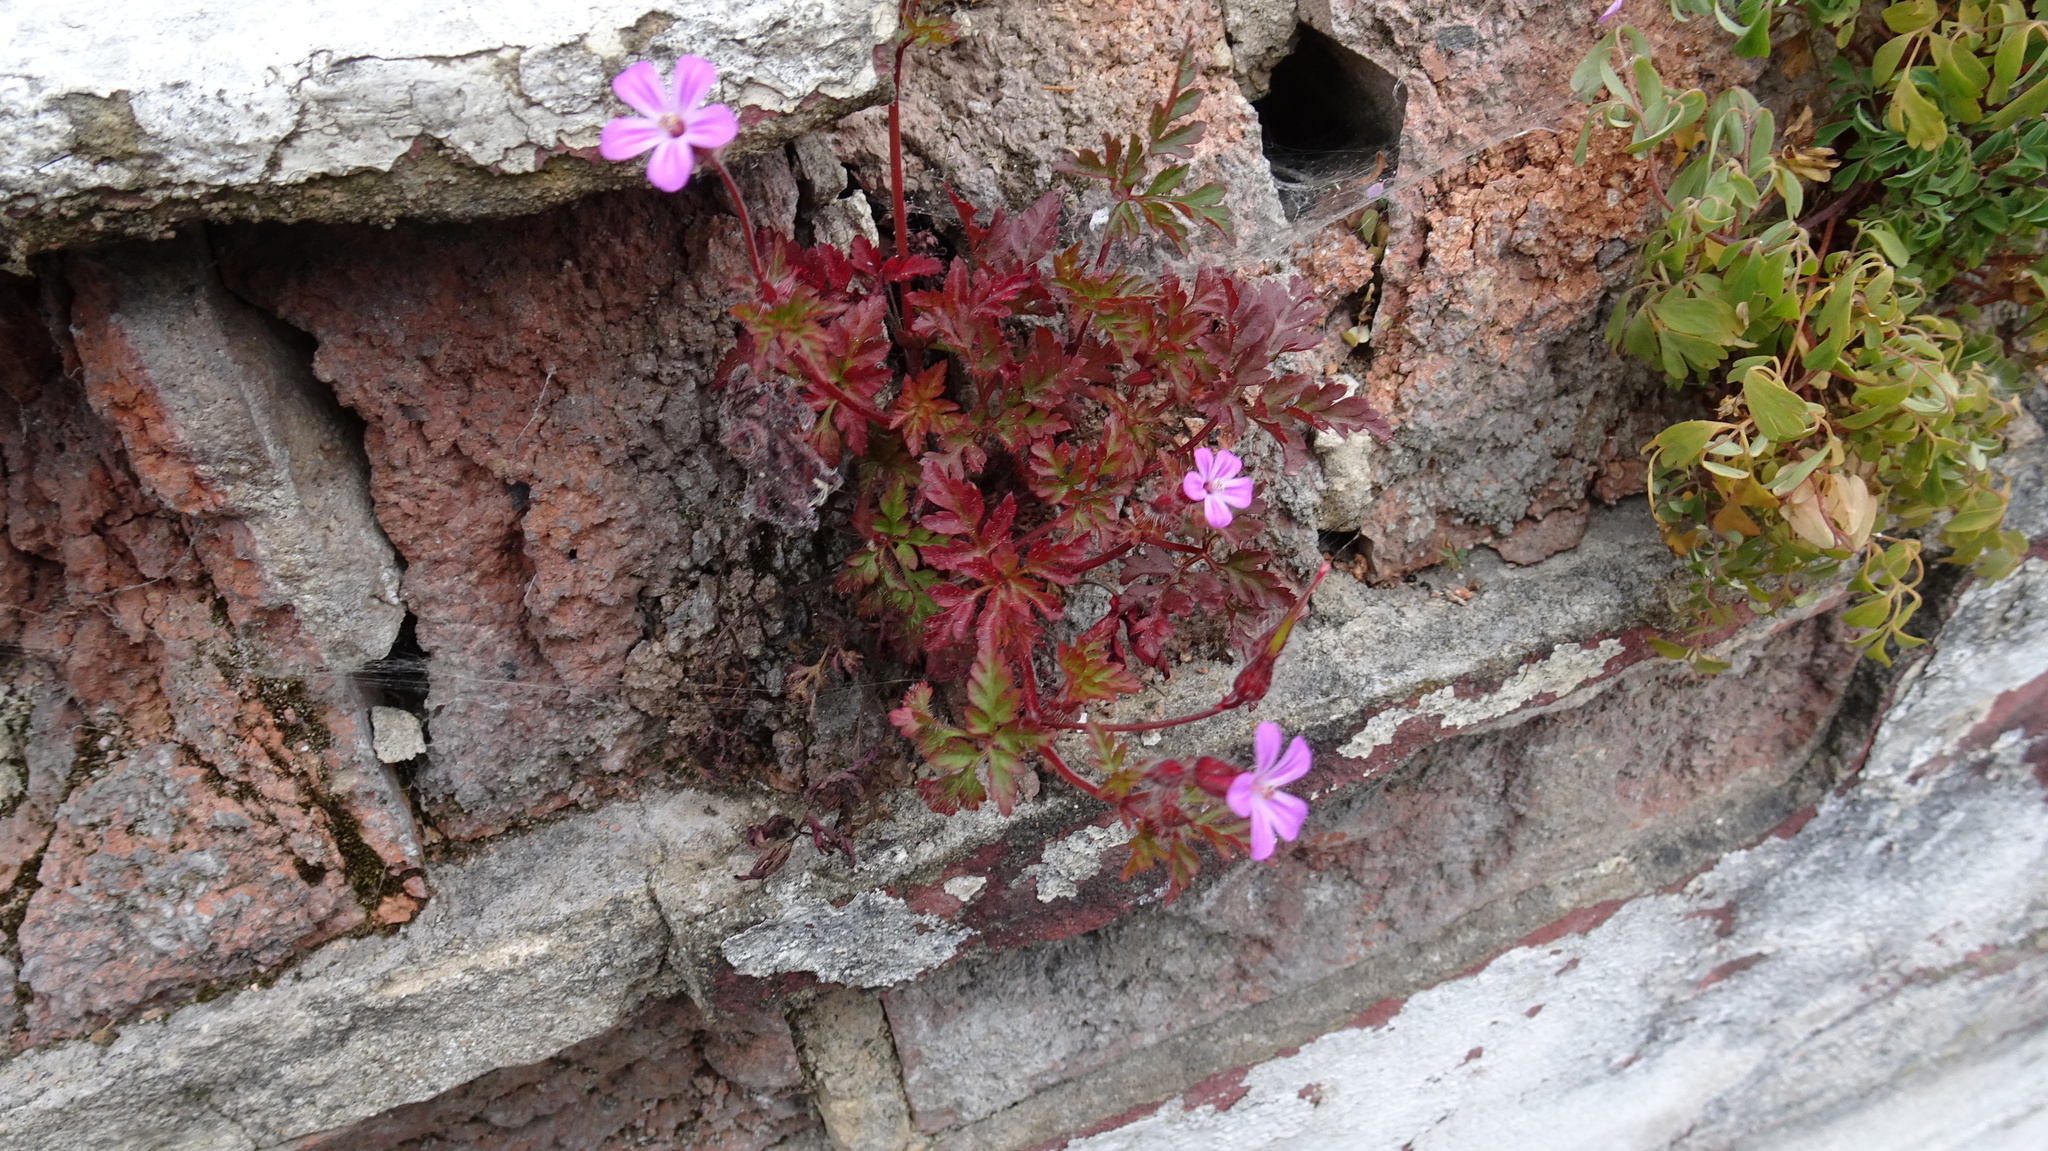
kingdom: Plantae
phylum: Tracheophyta
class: Magnoliopsida
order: Geraniales
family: Geraniaceae
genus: Geranium
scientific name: Geranium robertianum
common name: Herb-robert
